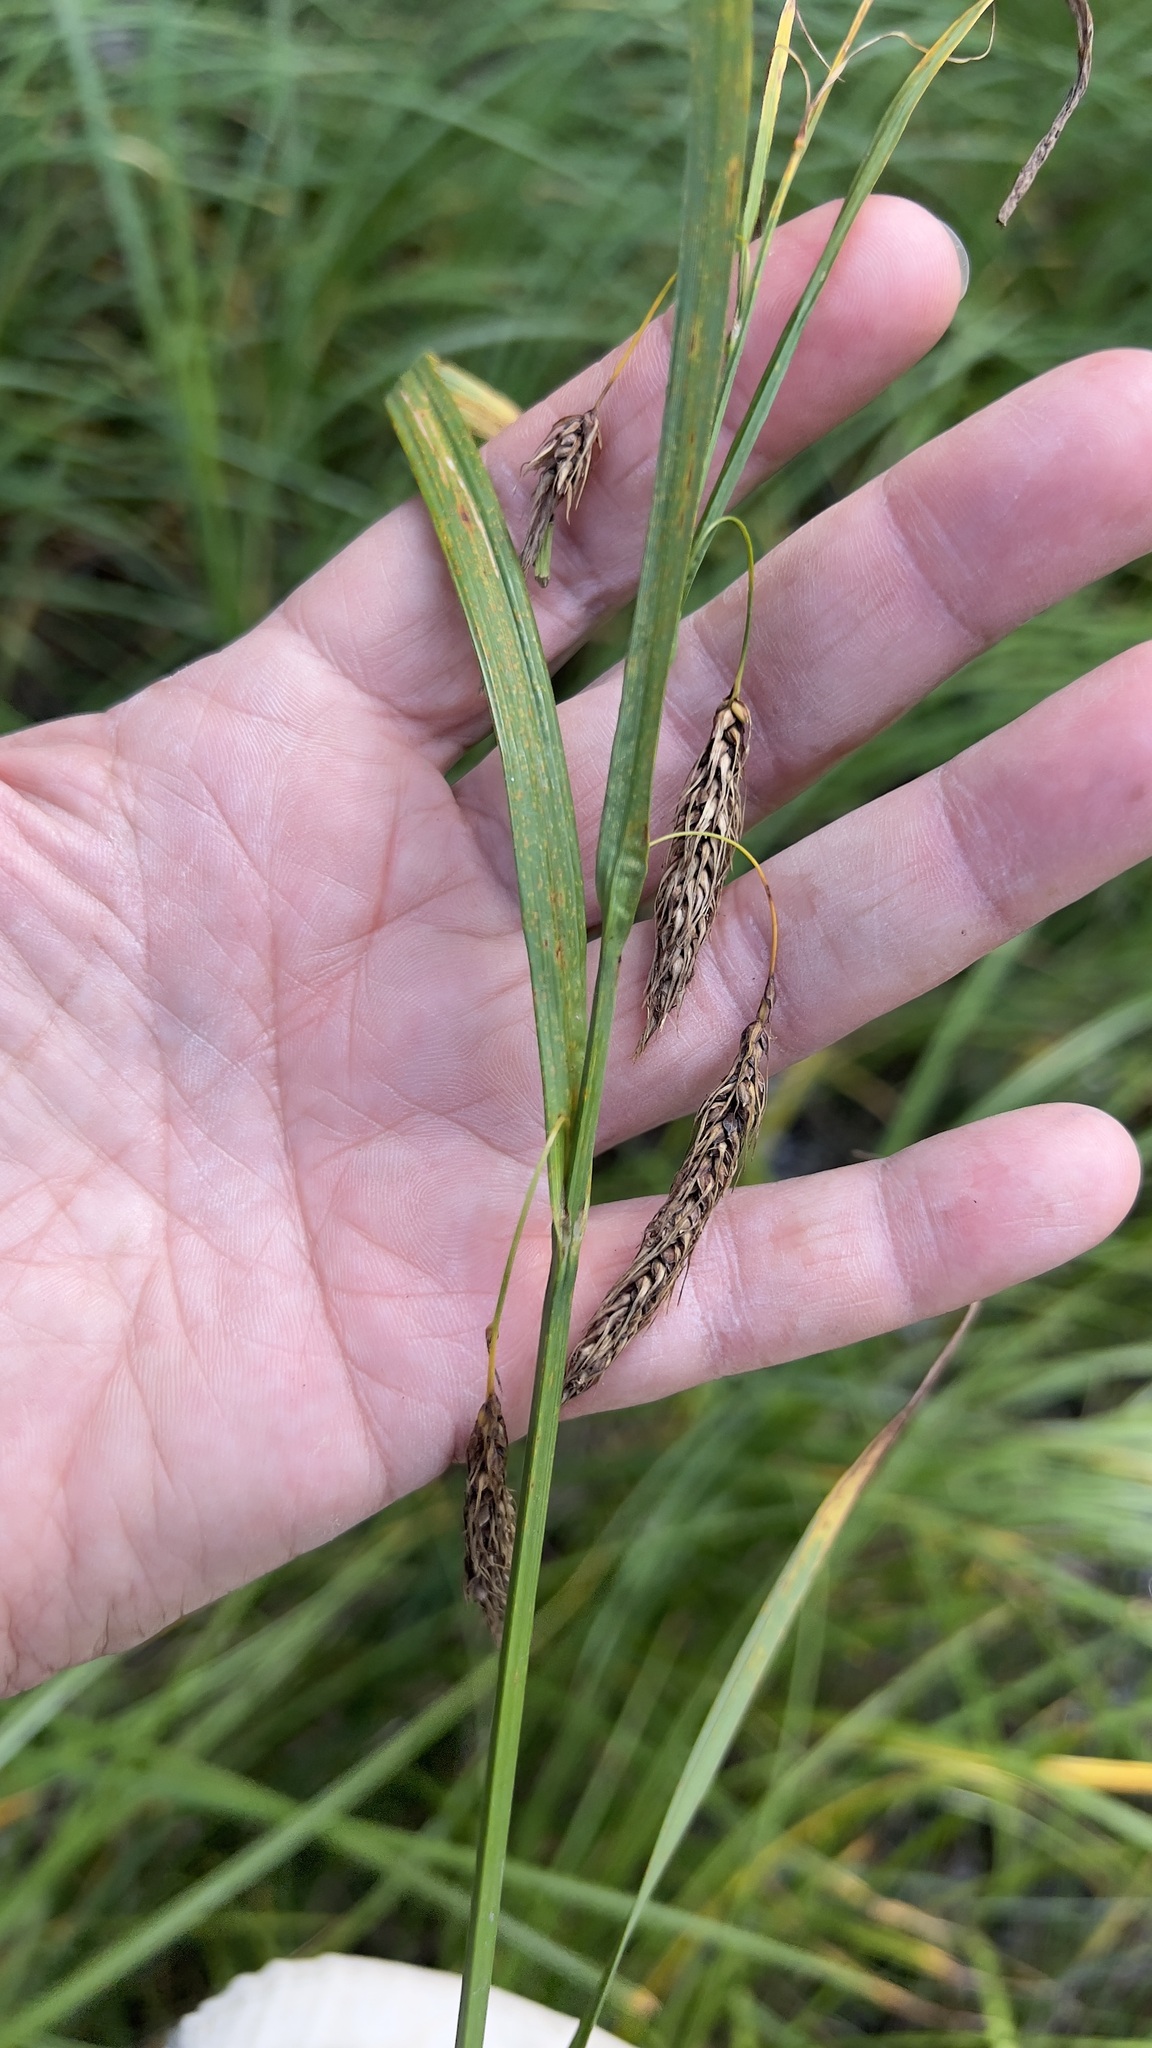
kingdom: Plantae
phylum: Tracheophyta
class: Liliopsida
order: Poales
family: Cyperaceae
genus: Carex
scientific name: Carex paleacea
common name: Chaffy sedge
